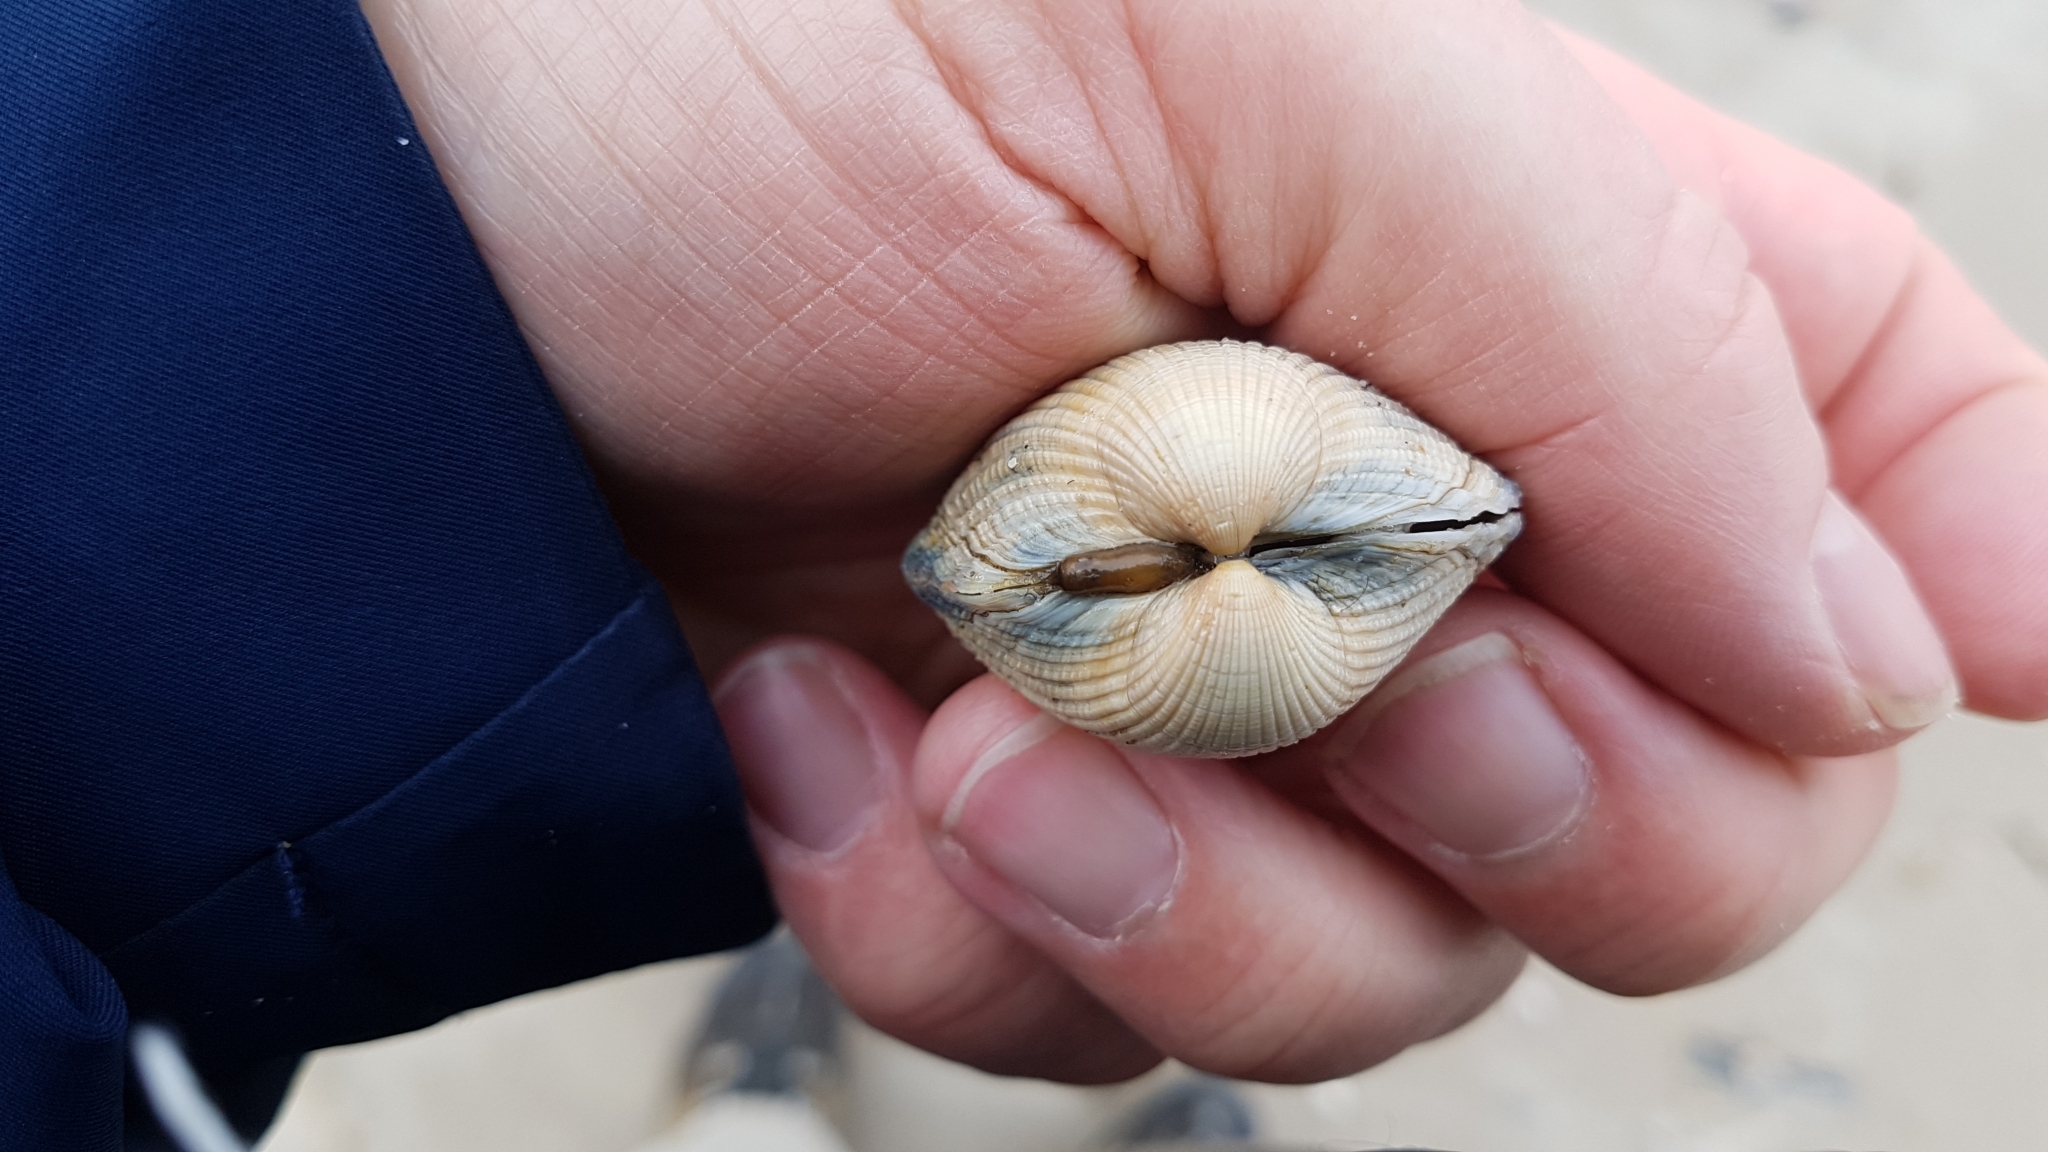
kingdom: Animalia
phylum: Mollusca
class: Bivalvia
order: Cardiida
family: Cardiidae
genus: Cerastoderma
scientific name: Cerastoderma edule
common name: Common cockle
